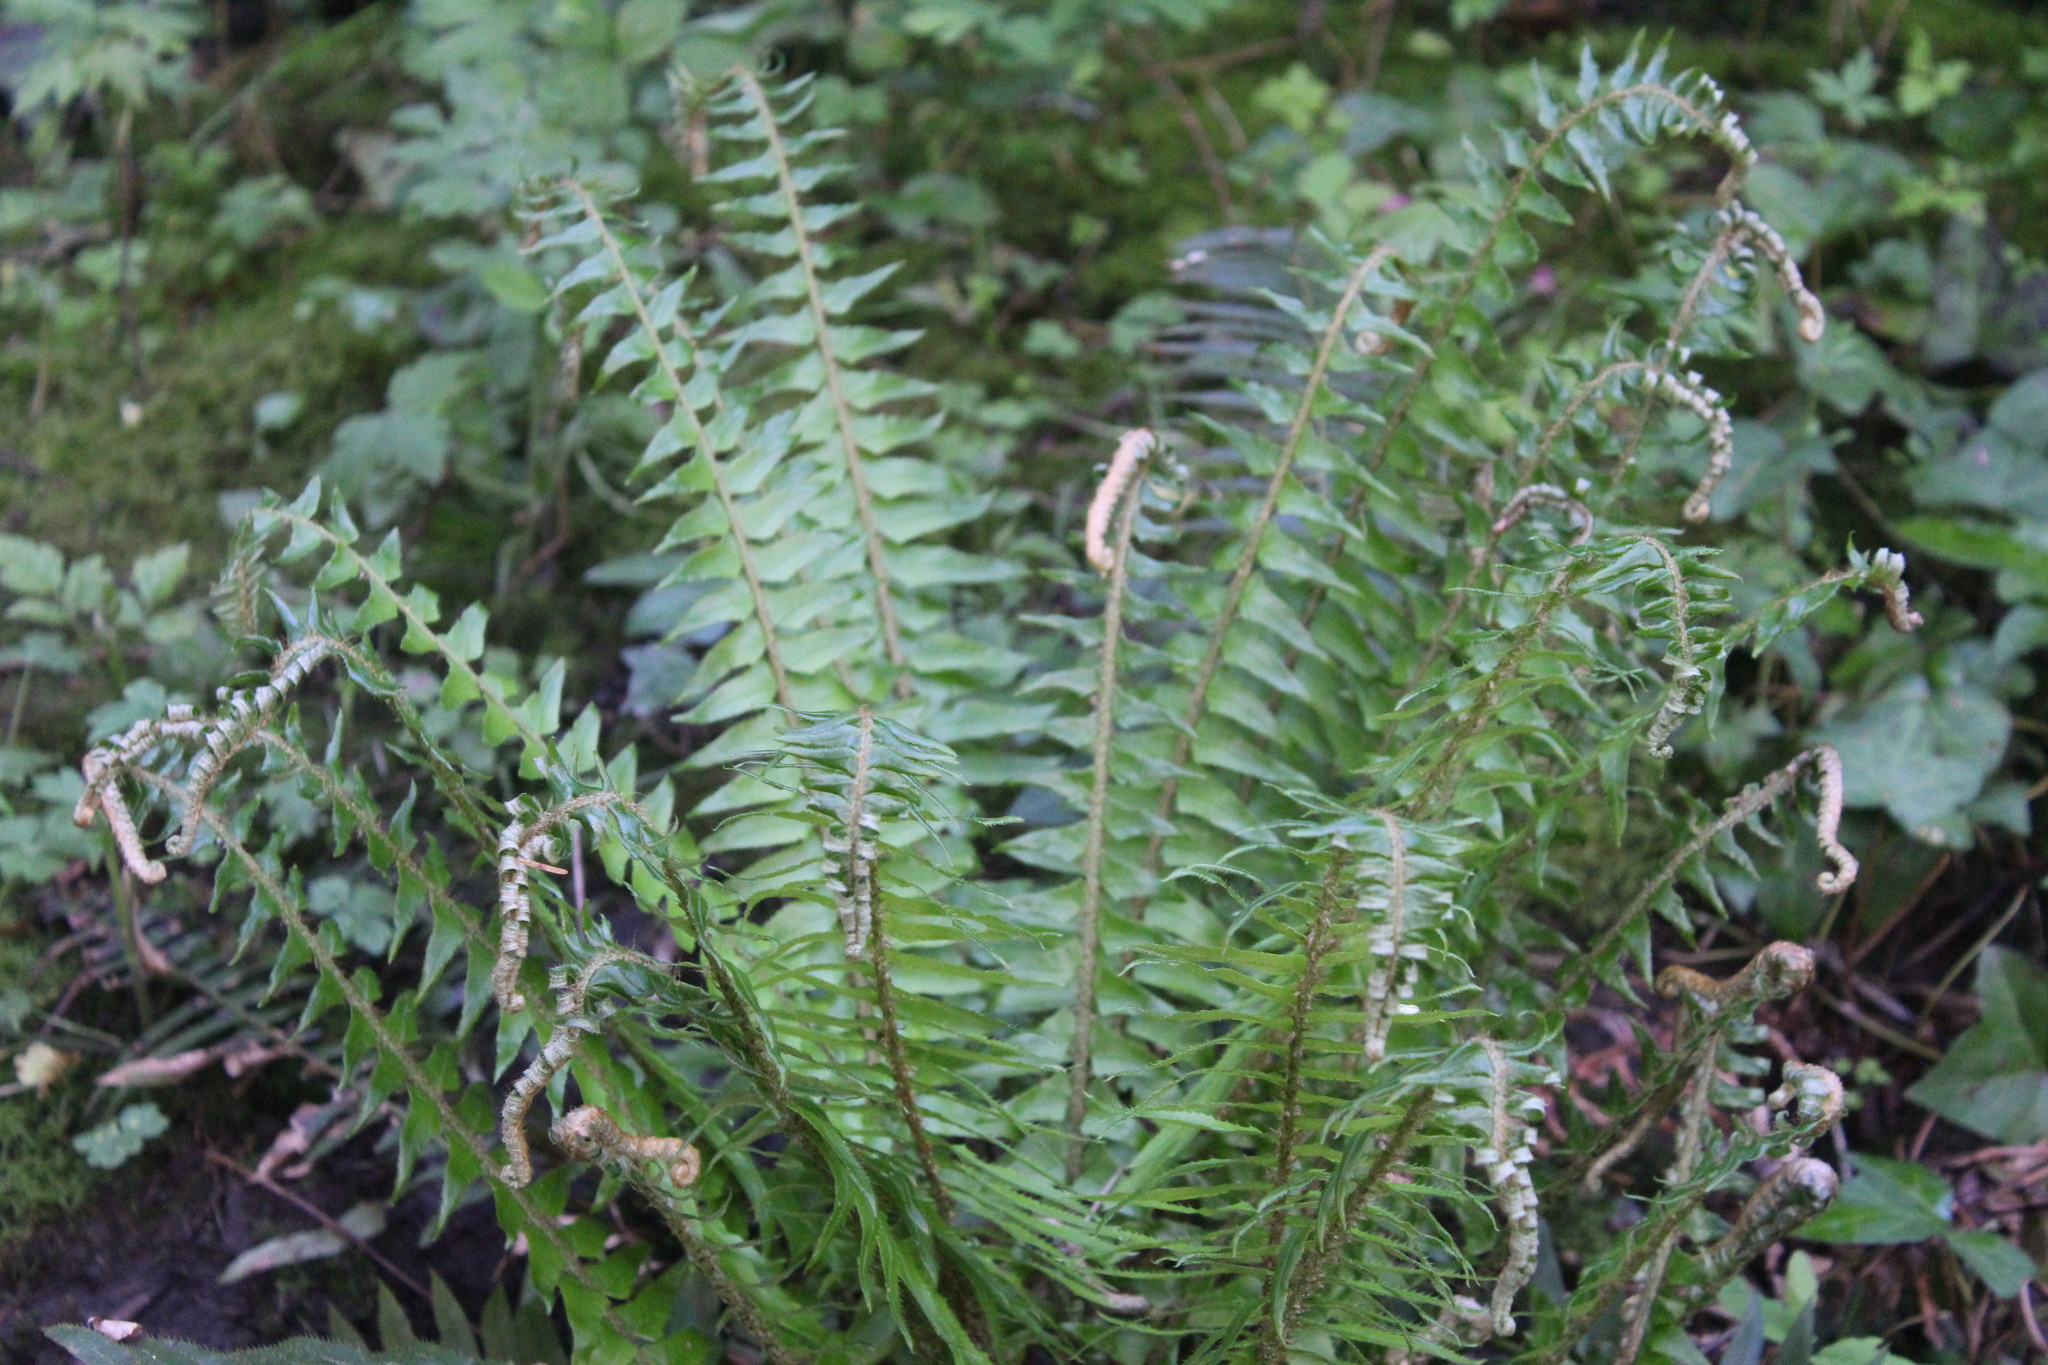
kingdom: Plantae
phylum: Tracheophyta
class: Polypodiopsida
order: Polypodiales
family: Dryopteridaceae
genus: Polystichum
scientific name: Polystichum munitum
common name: Western sword-fern
